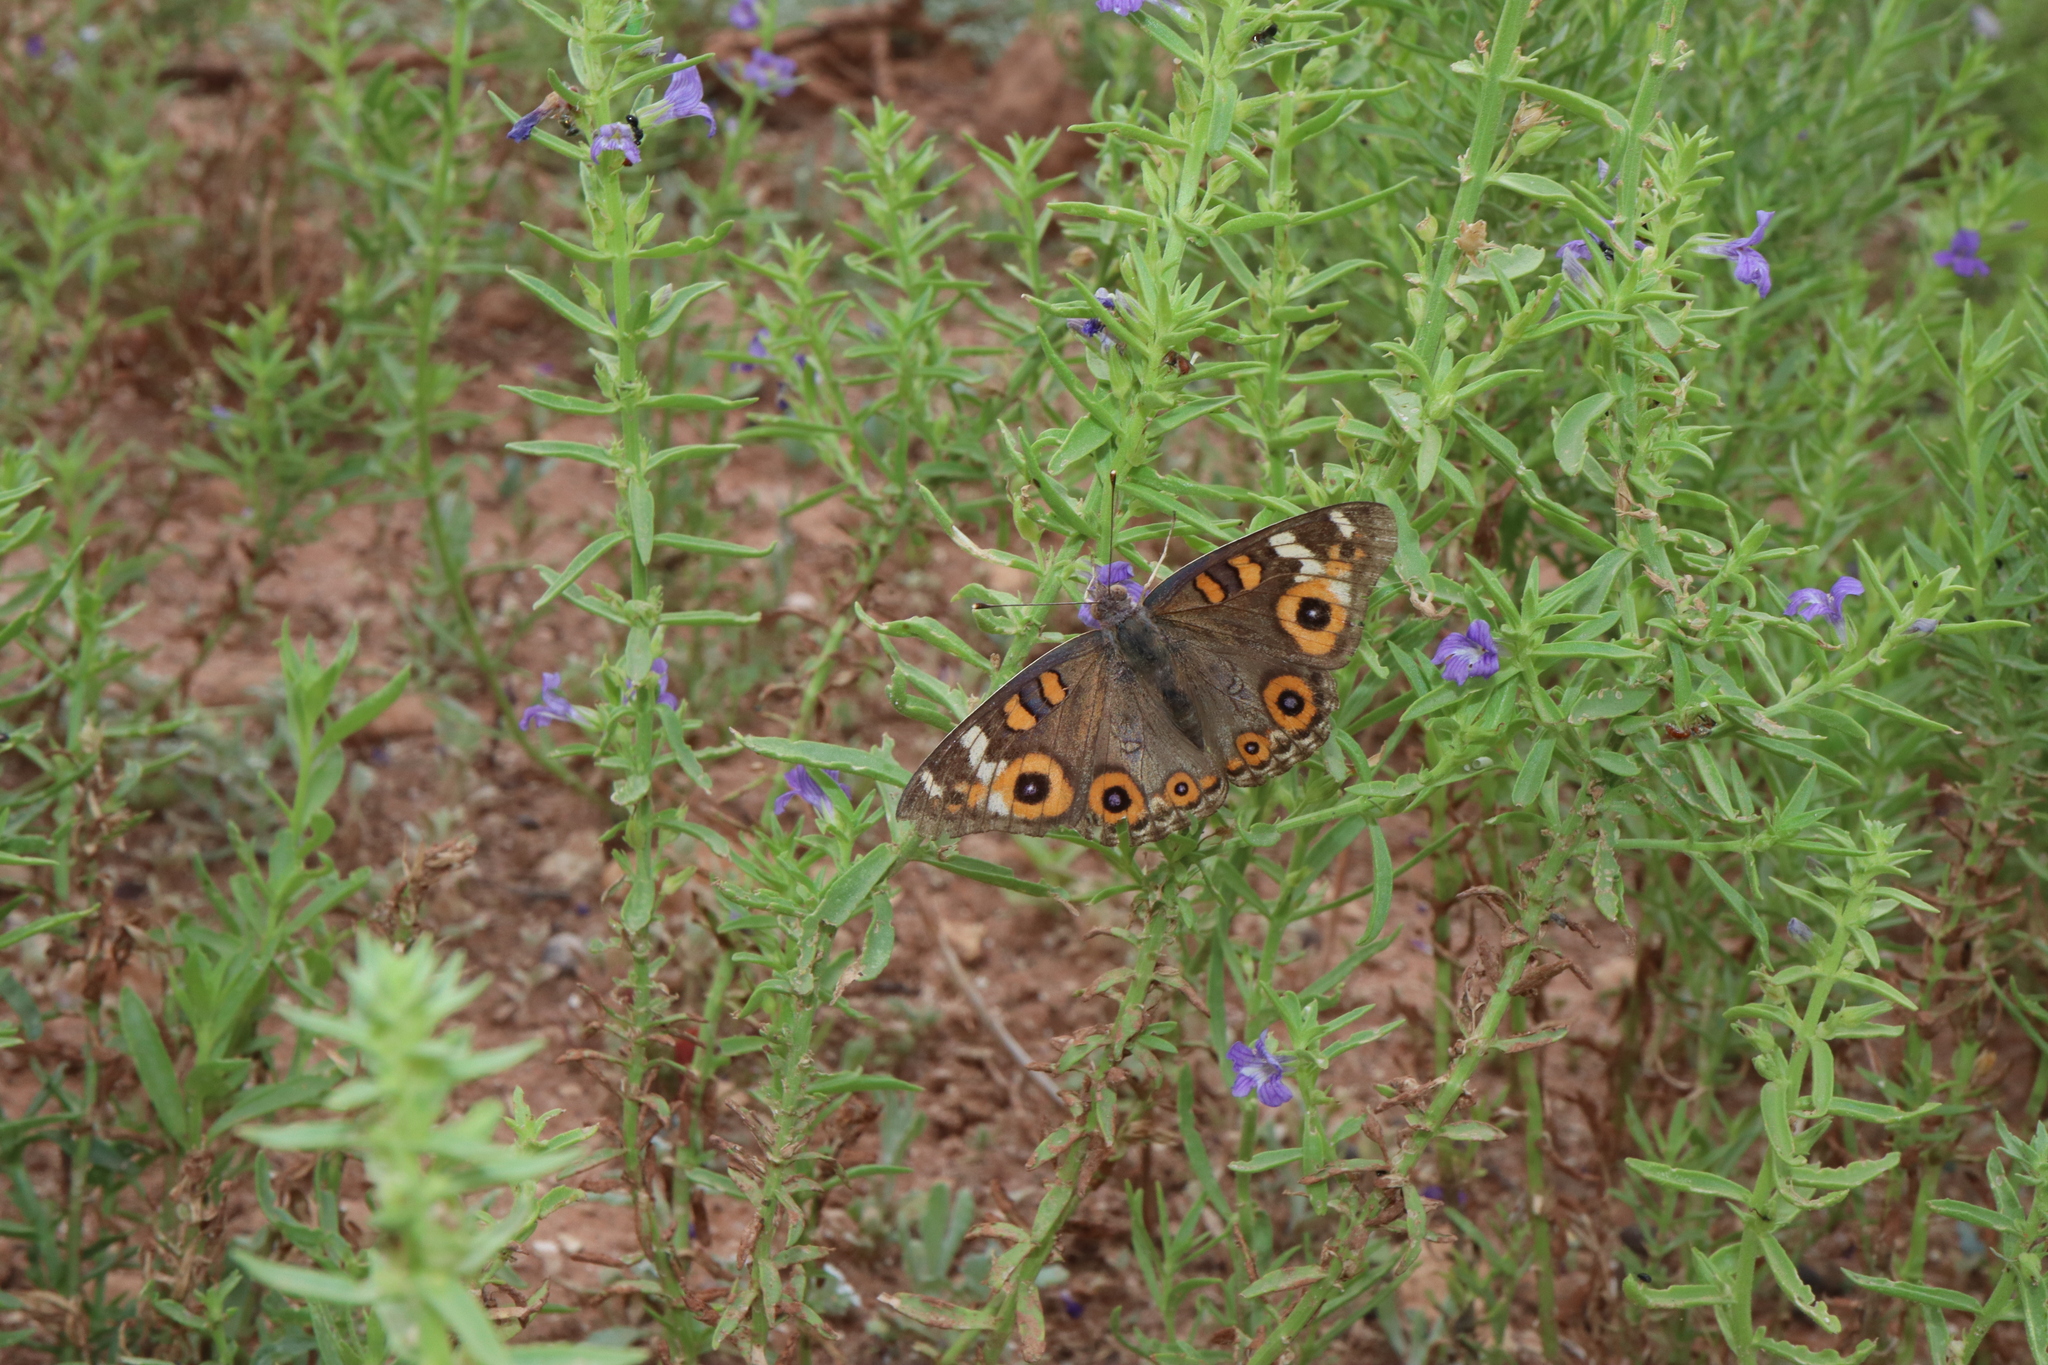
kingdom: Animalia
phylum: Arthropoda
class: Insecta
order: Lepidoptera
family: Nymphalidae
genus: Junonia
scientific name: Junonia villida
